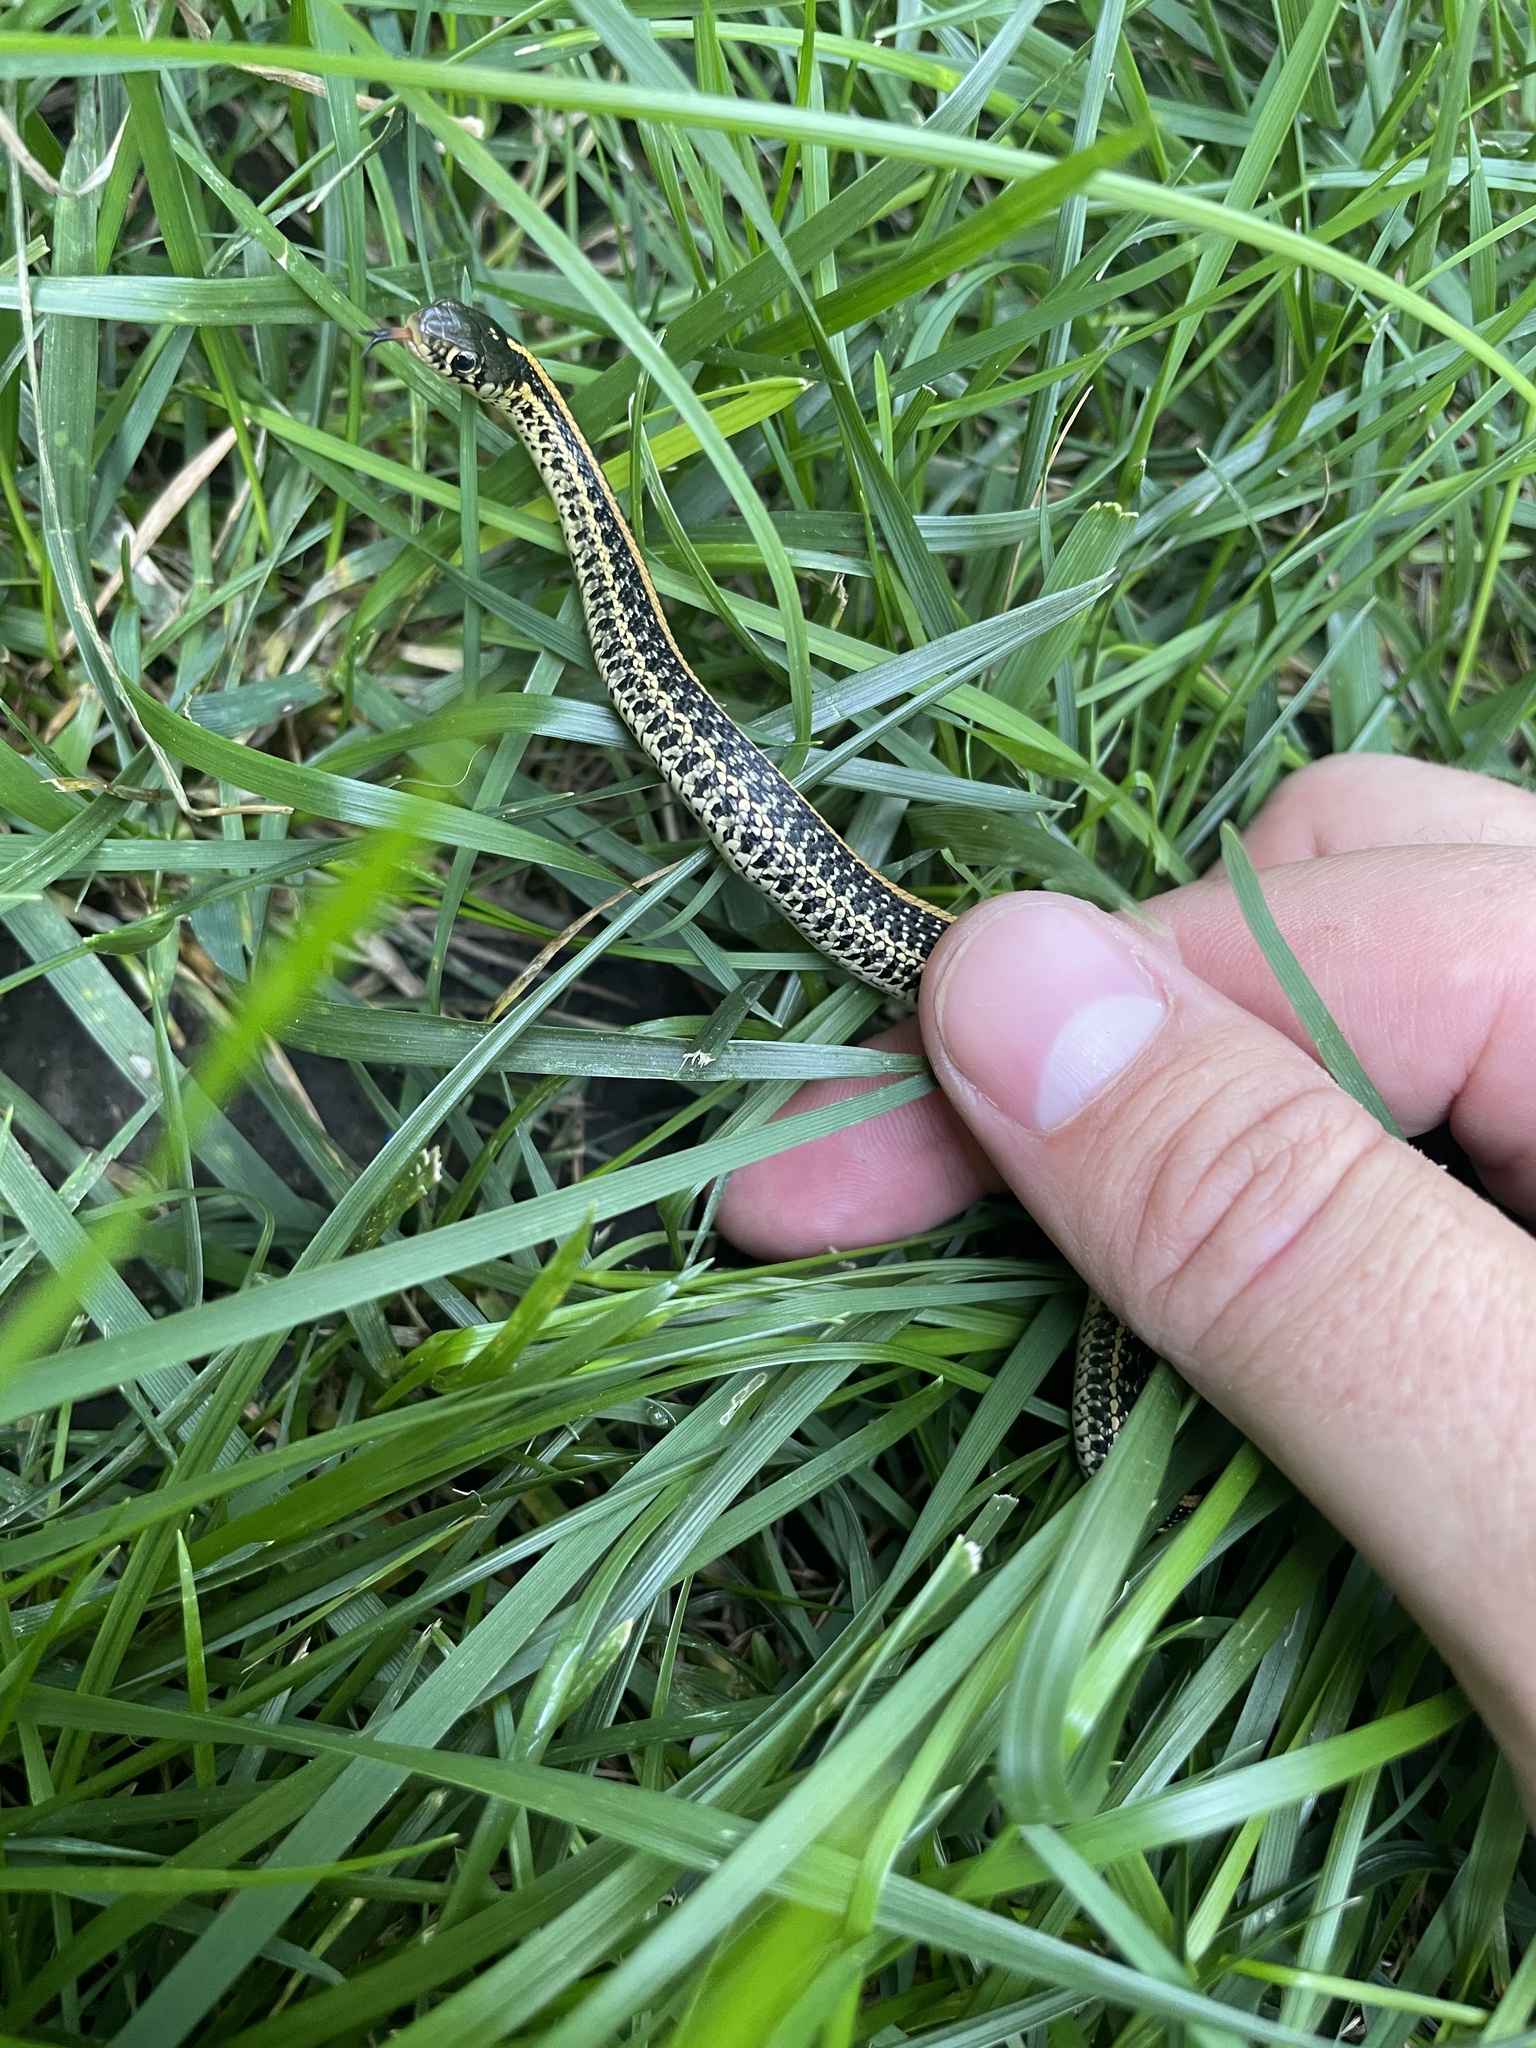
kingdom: Animalia
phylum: Chordata
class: Squamata
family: Colubridae
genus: Thamnophis
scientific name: Thamnophis radix
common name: Plains garter snake
